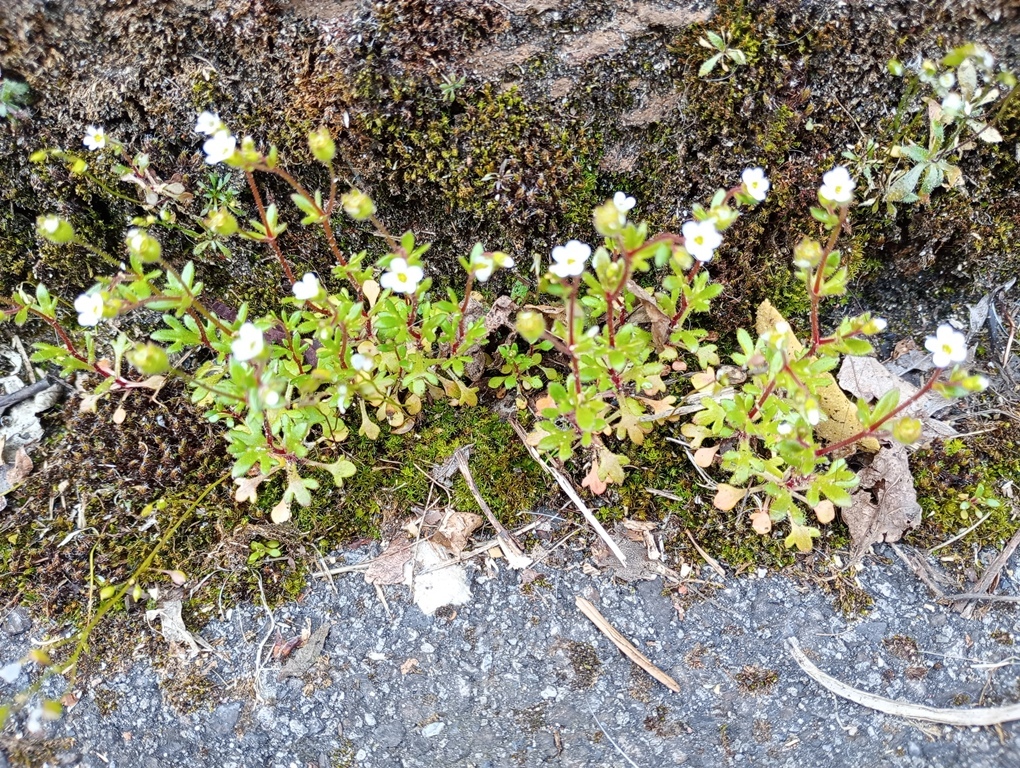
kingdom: Plantae
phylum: Tracheophyta
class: Magnoliopsida
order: Saxifragales
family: Saxifragaceae
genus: Saxifraga
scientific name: Saxifraga tridactylites
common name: Rue-leaved saxifrage
